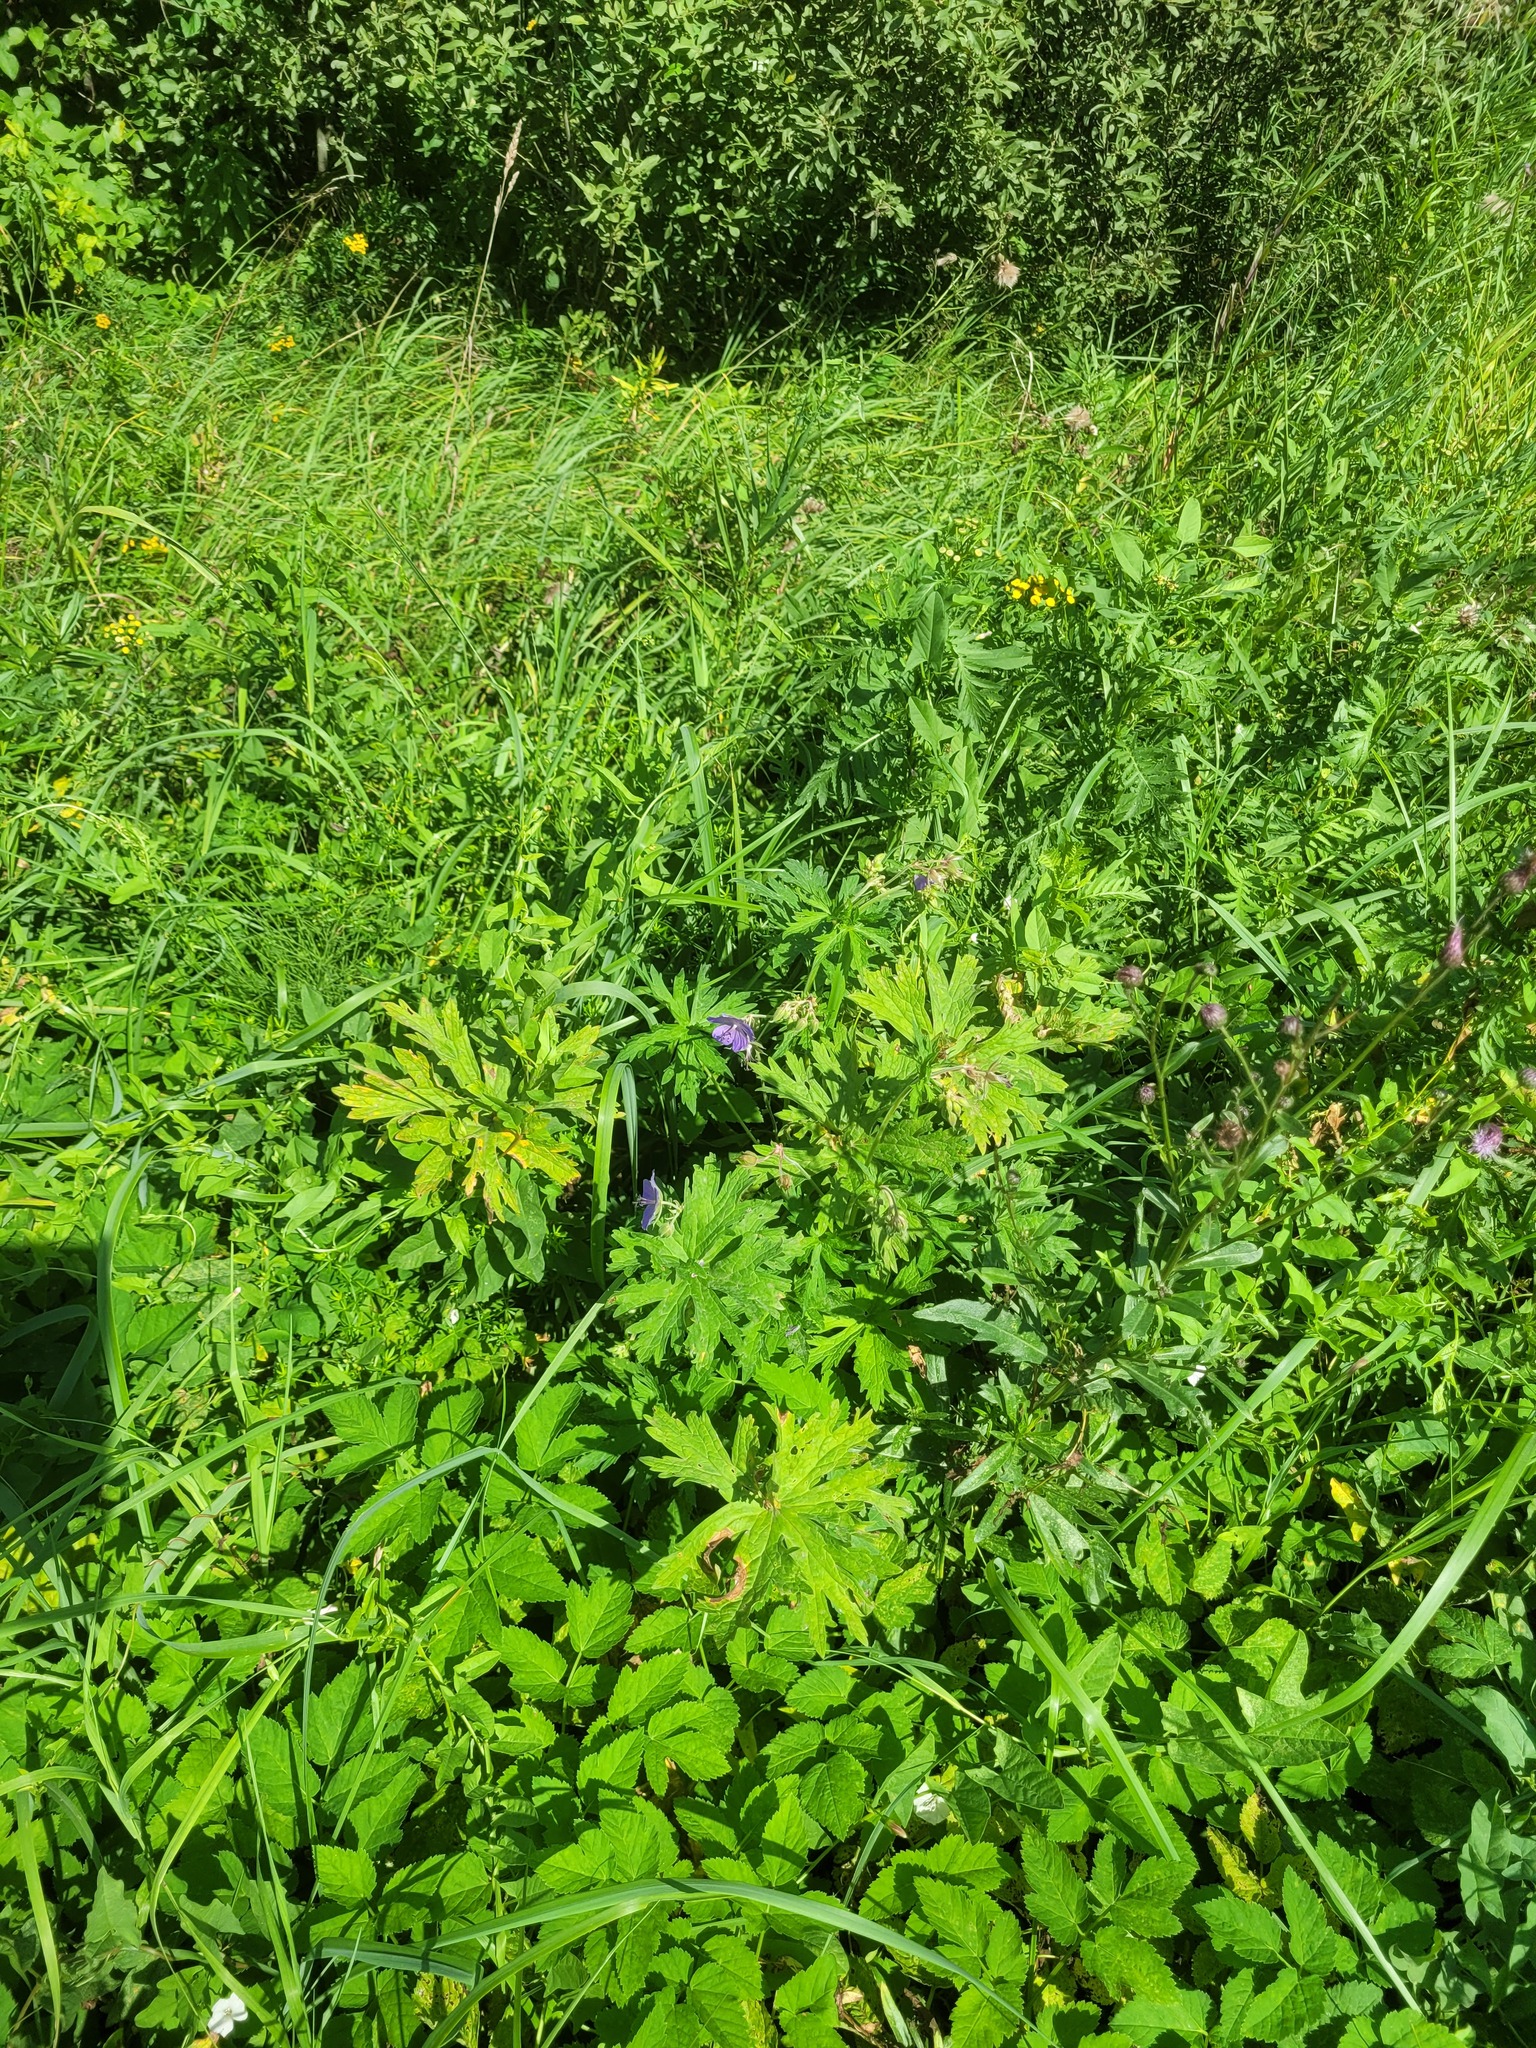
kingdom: Plantae
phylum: Tracheophyta
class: Magnoliopsida
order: Geraniales
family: Geraniaceae
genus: Geranium
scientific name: Geranium pratense
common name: Meadow crane's-bill
